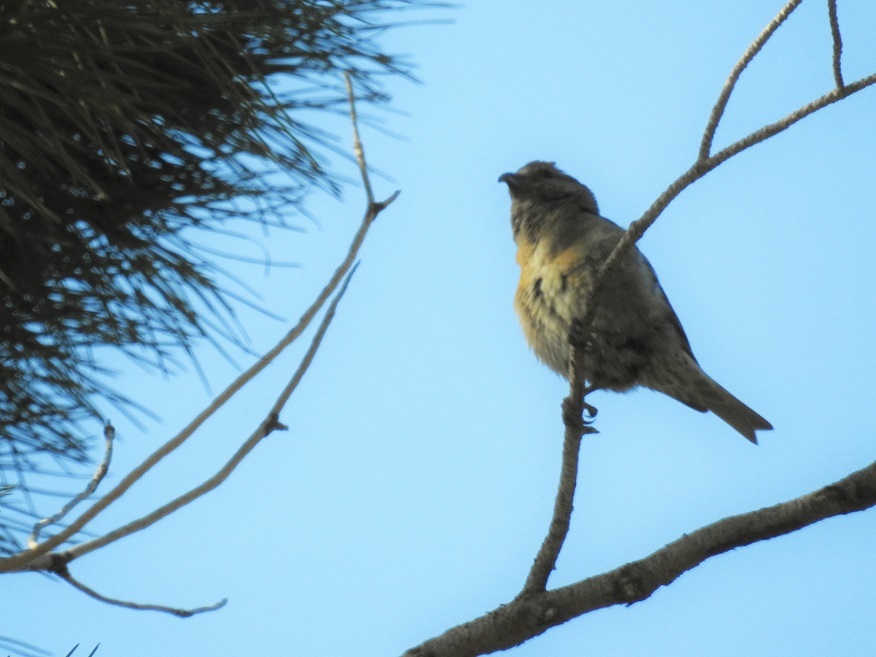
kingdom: Animalia
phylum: Chordata
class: Aves
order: Passeriformes
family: Fringillidae
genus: Loxia
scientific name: Loxia curvirostra
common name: Red crossbill
